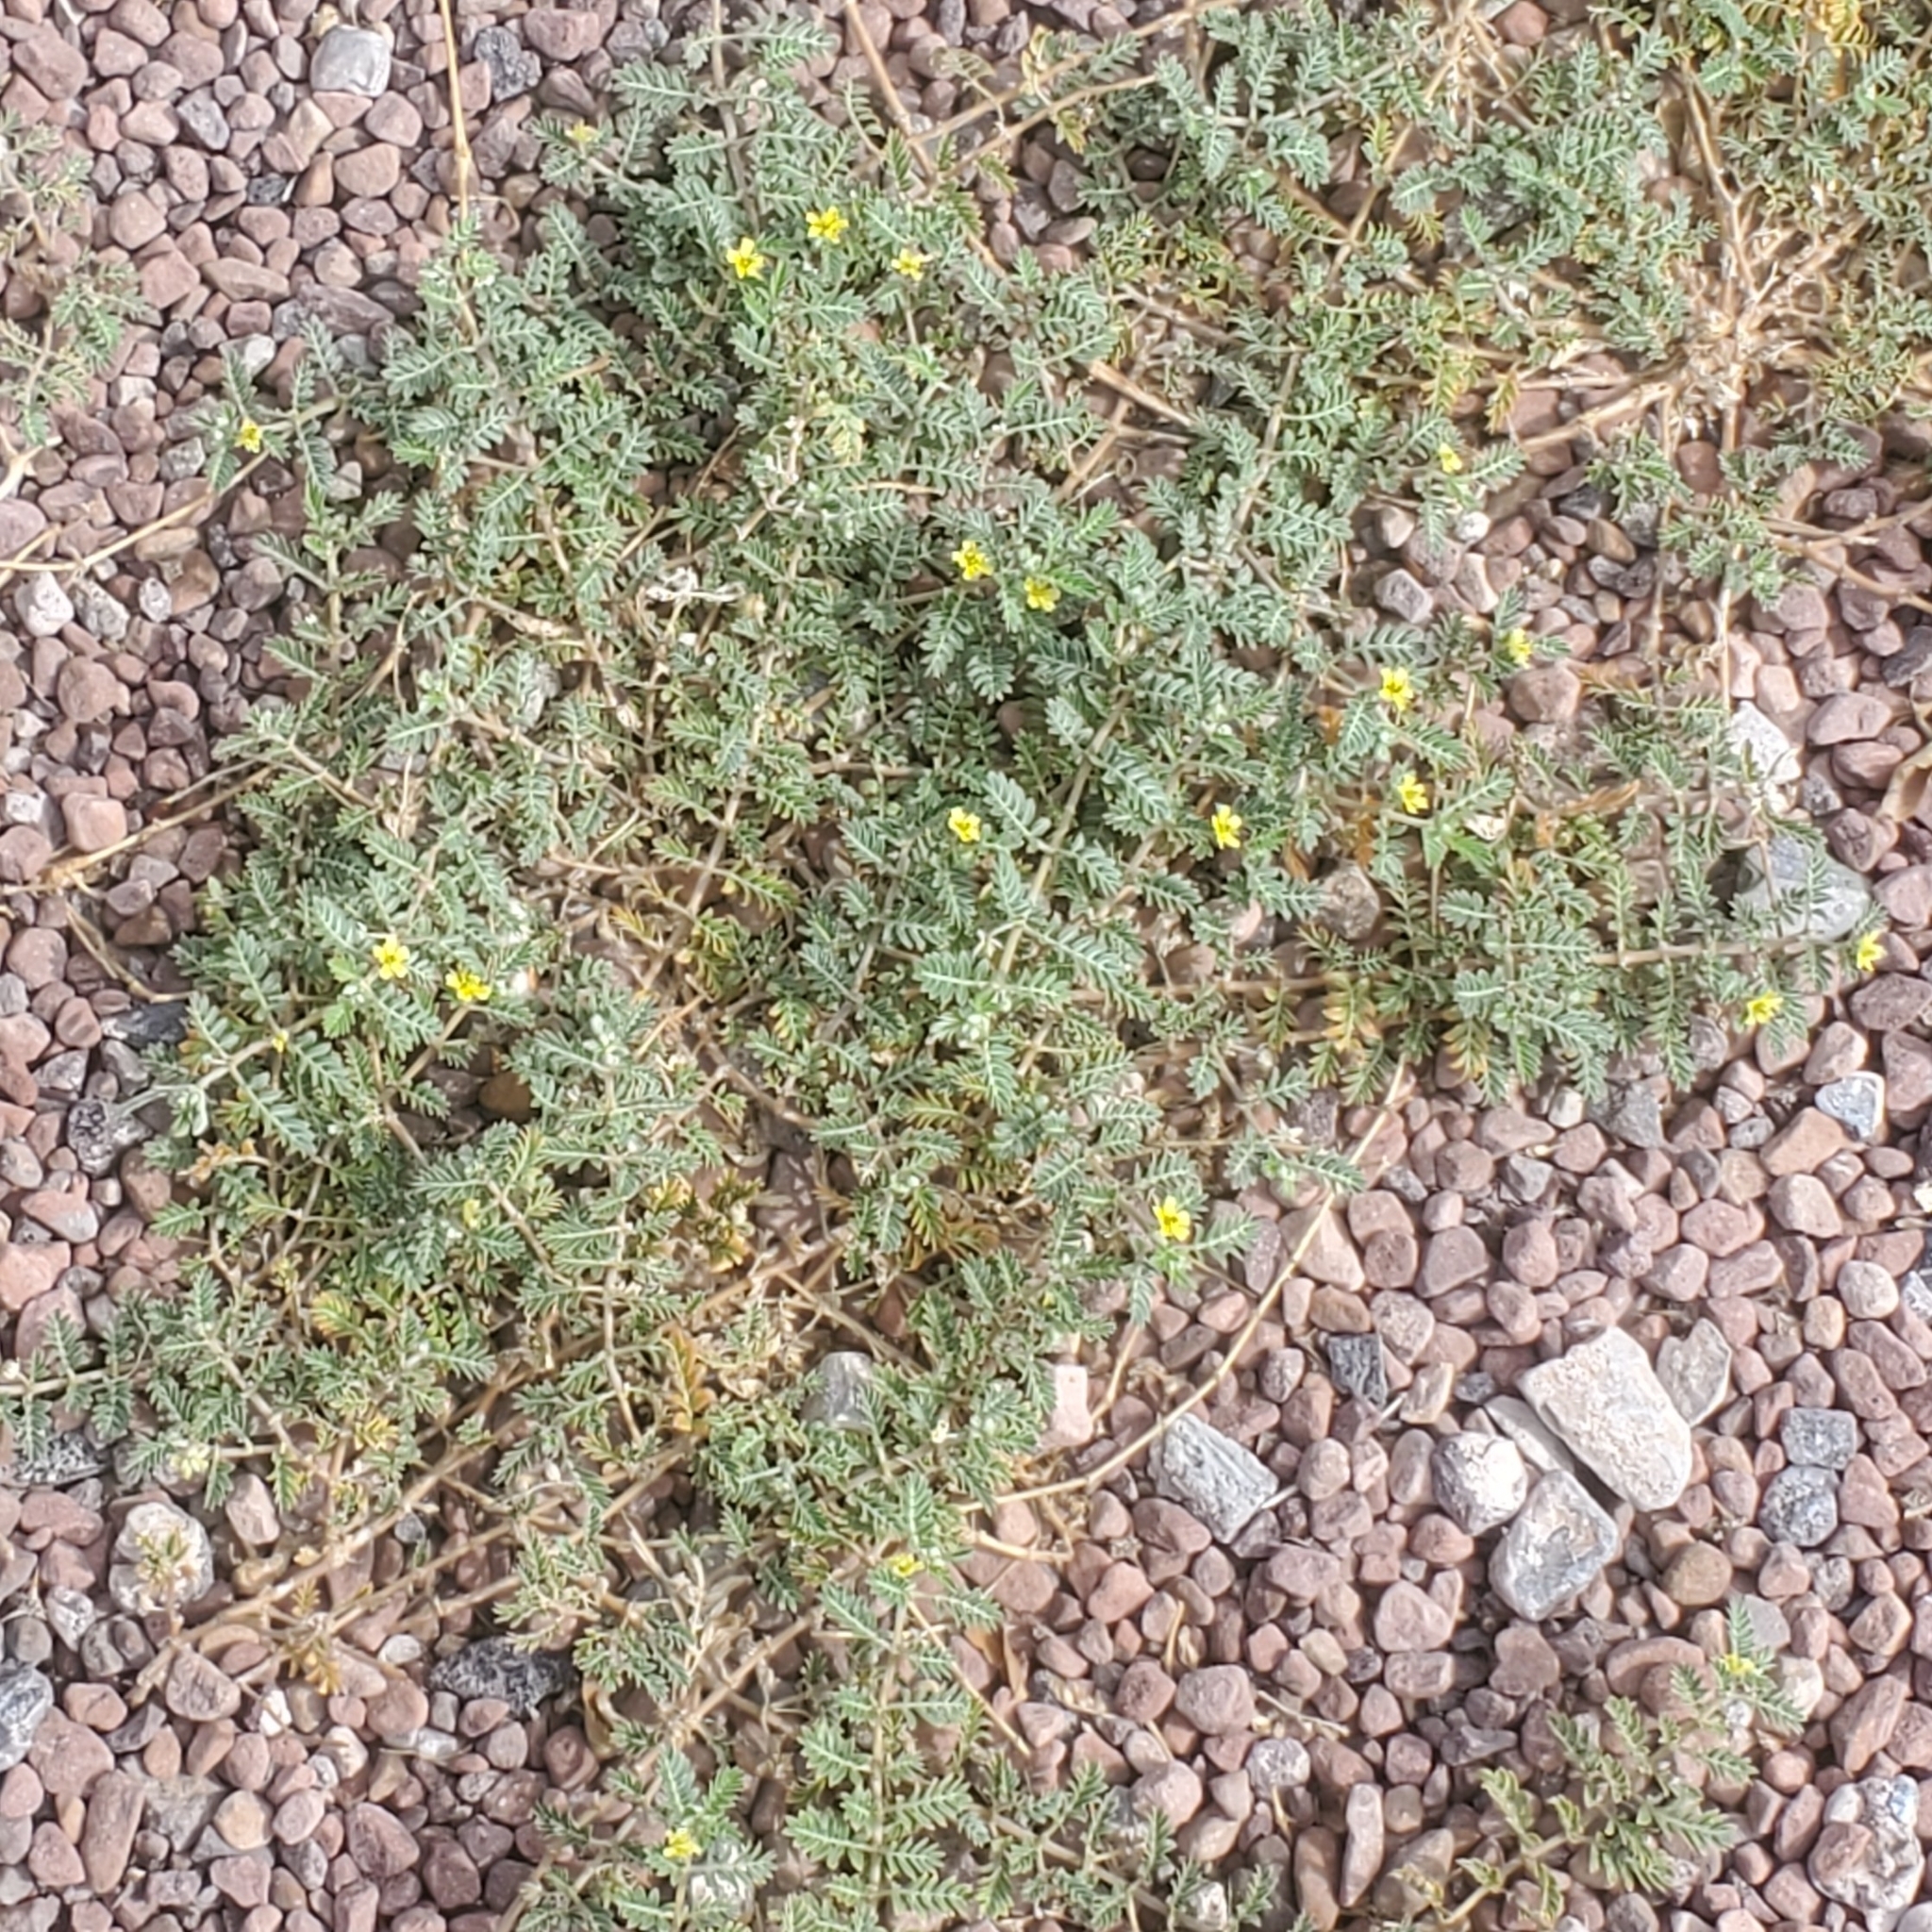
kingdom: Plantae
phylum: Tracheophyta
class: Magnoliopsida
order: Zygophyllales
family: Zygophyllaceae
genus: Tribulus
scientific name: Tribulus terrestris
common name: Puncturevine
